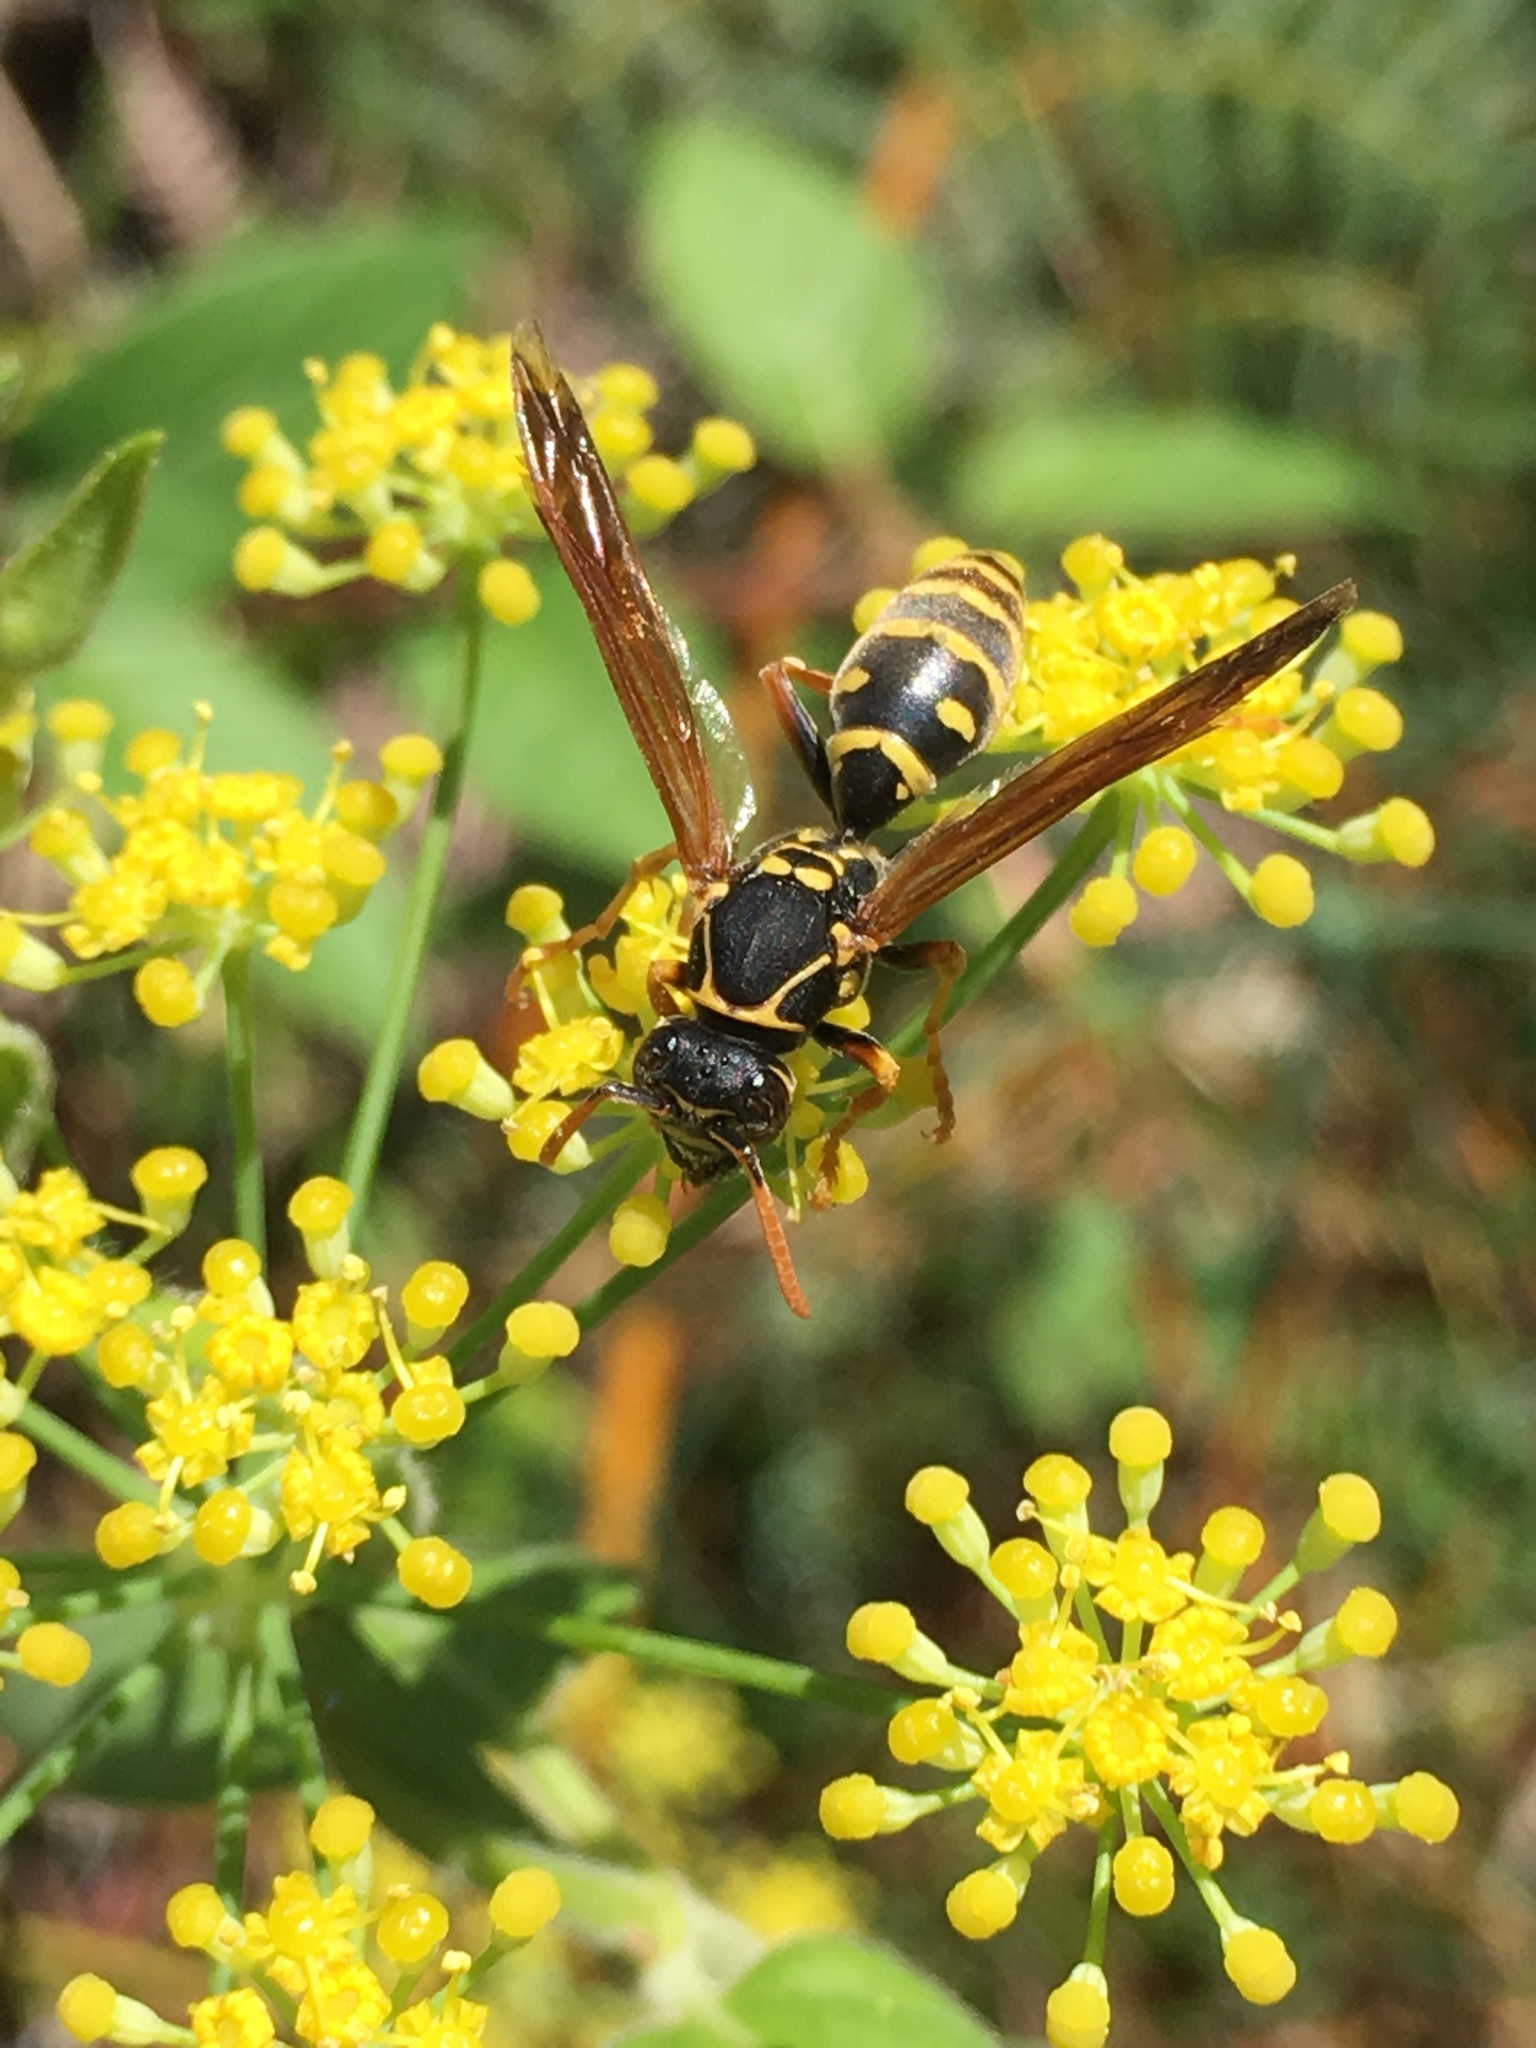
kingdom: Animalia
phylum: Arthropoda
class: Insecta
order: Hymenoptera
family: Eumenidae
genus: Polistes
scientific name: Polistes chinensis
